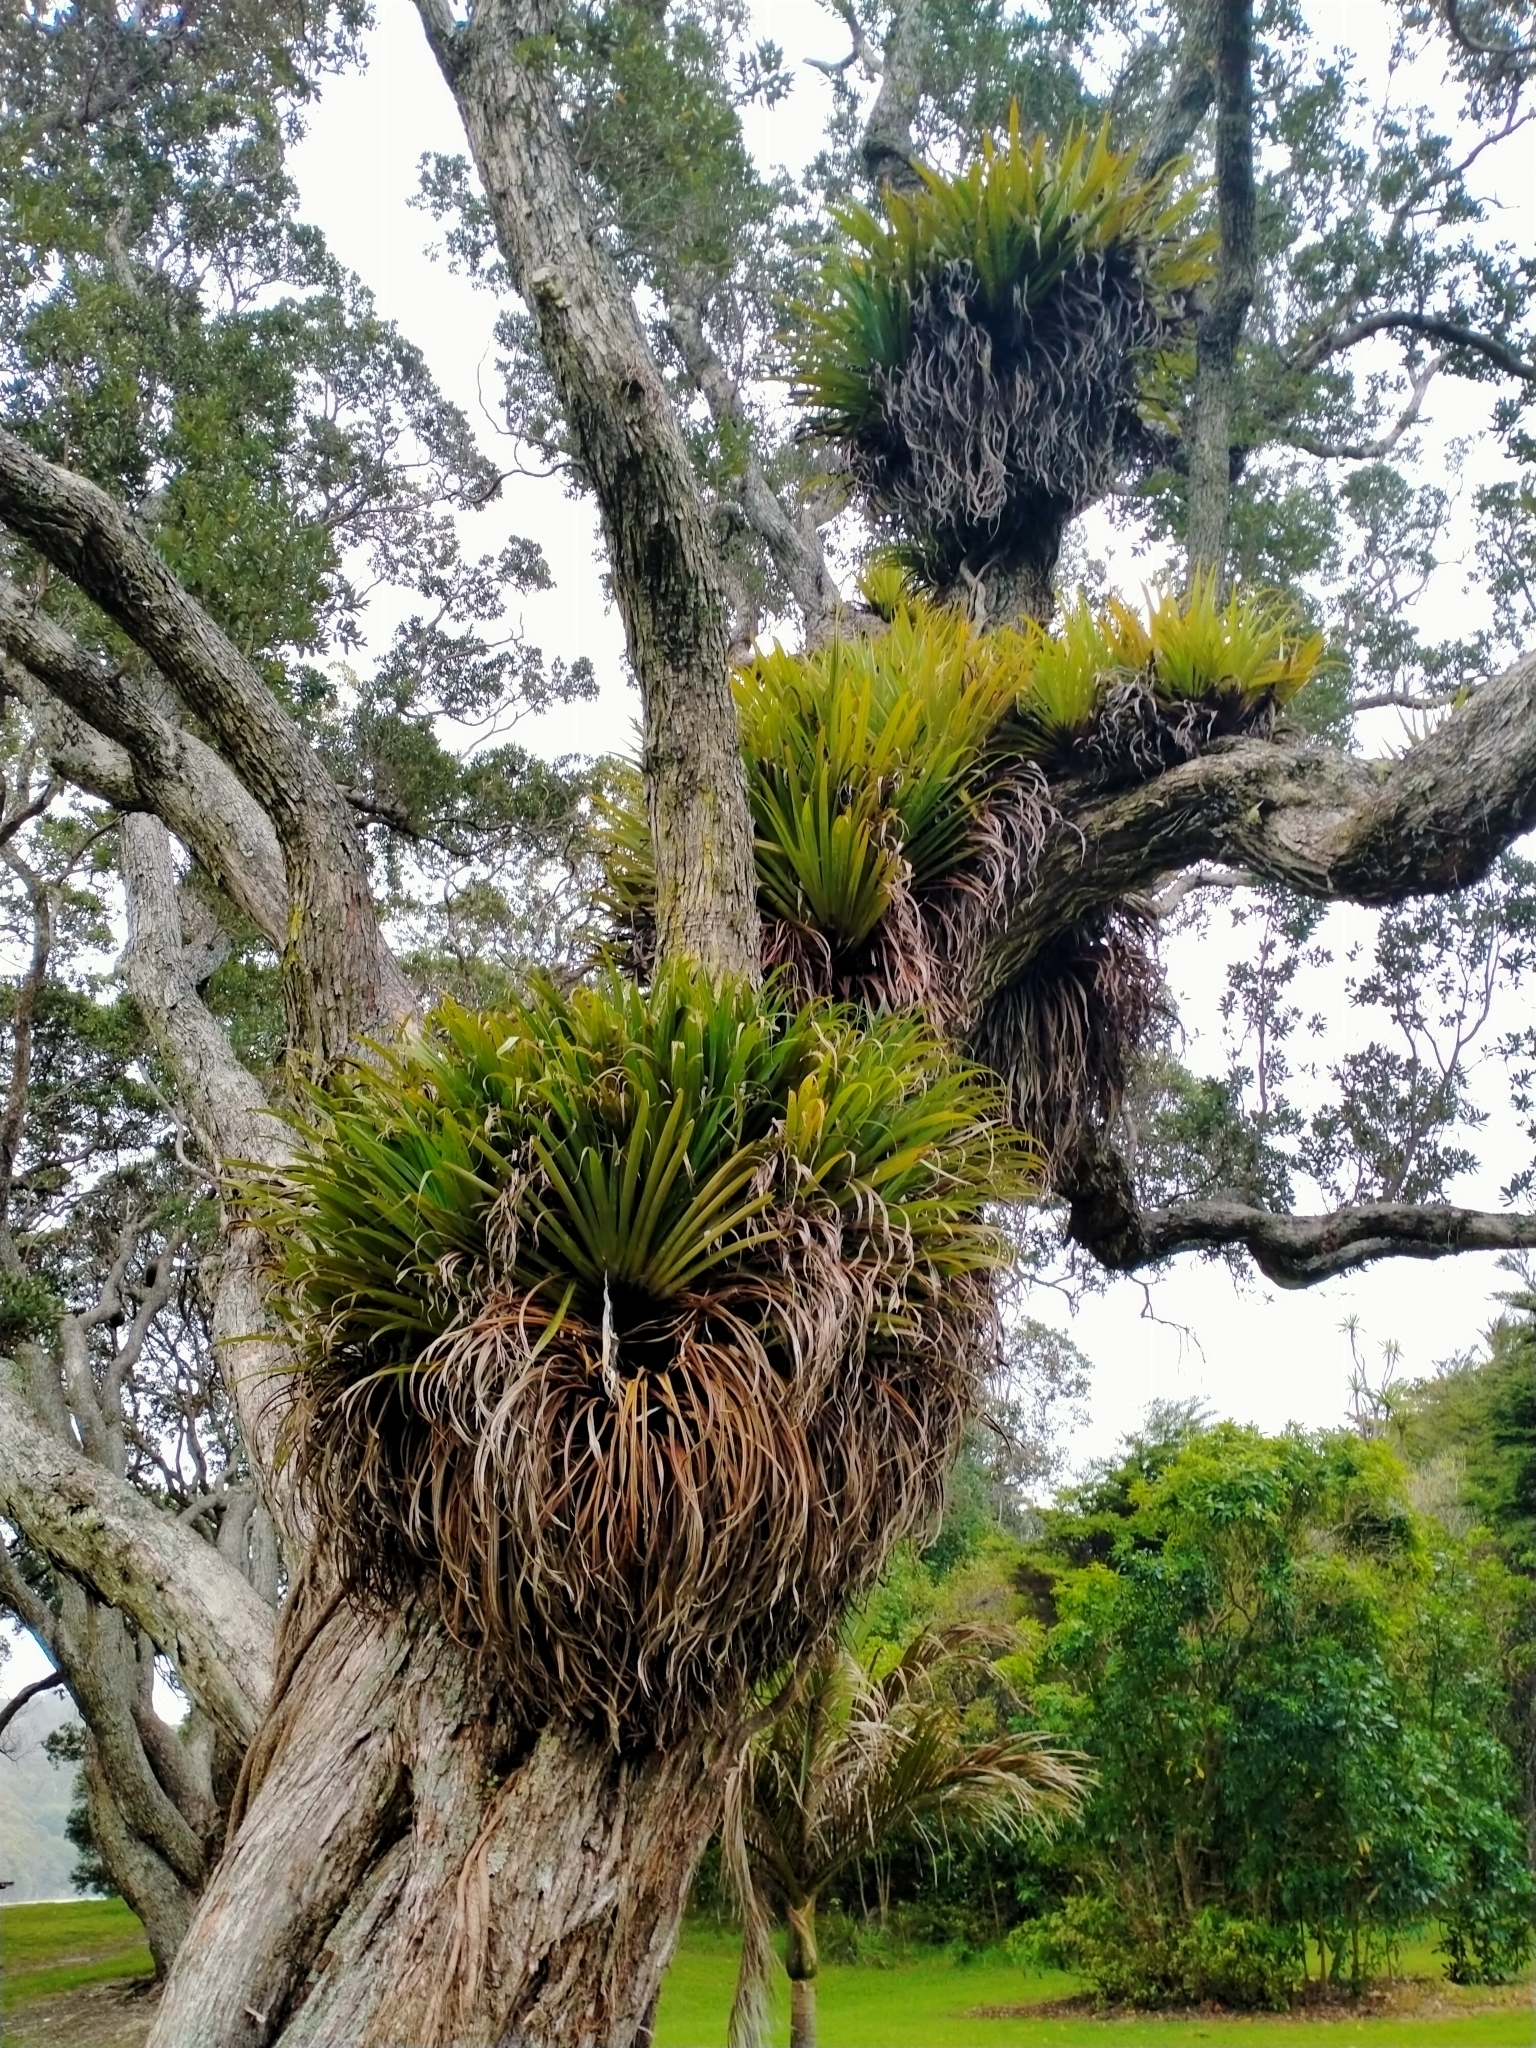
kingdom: Plantae
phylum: Tracheophyta
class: Liliopsida
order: Asparagales
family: Asteliaceae
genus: Astelia
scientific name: Astelia hastata
